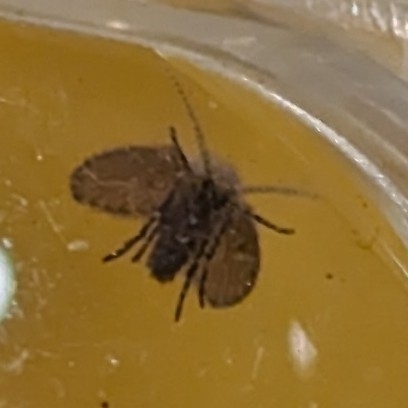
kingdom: Animalia
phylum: Arthropoda
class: Insecta
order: Diptera
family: Psychodidae
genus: Clogmia
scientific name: Clogmia albipunctatus
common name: White-spotted moth fly
